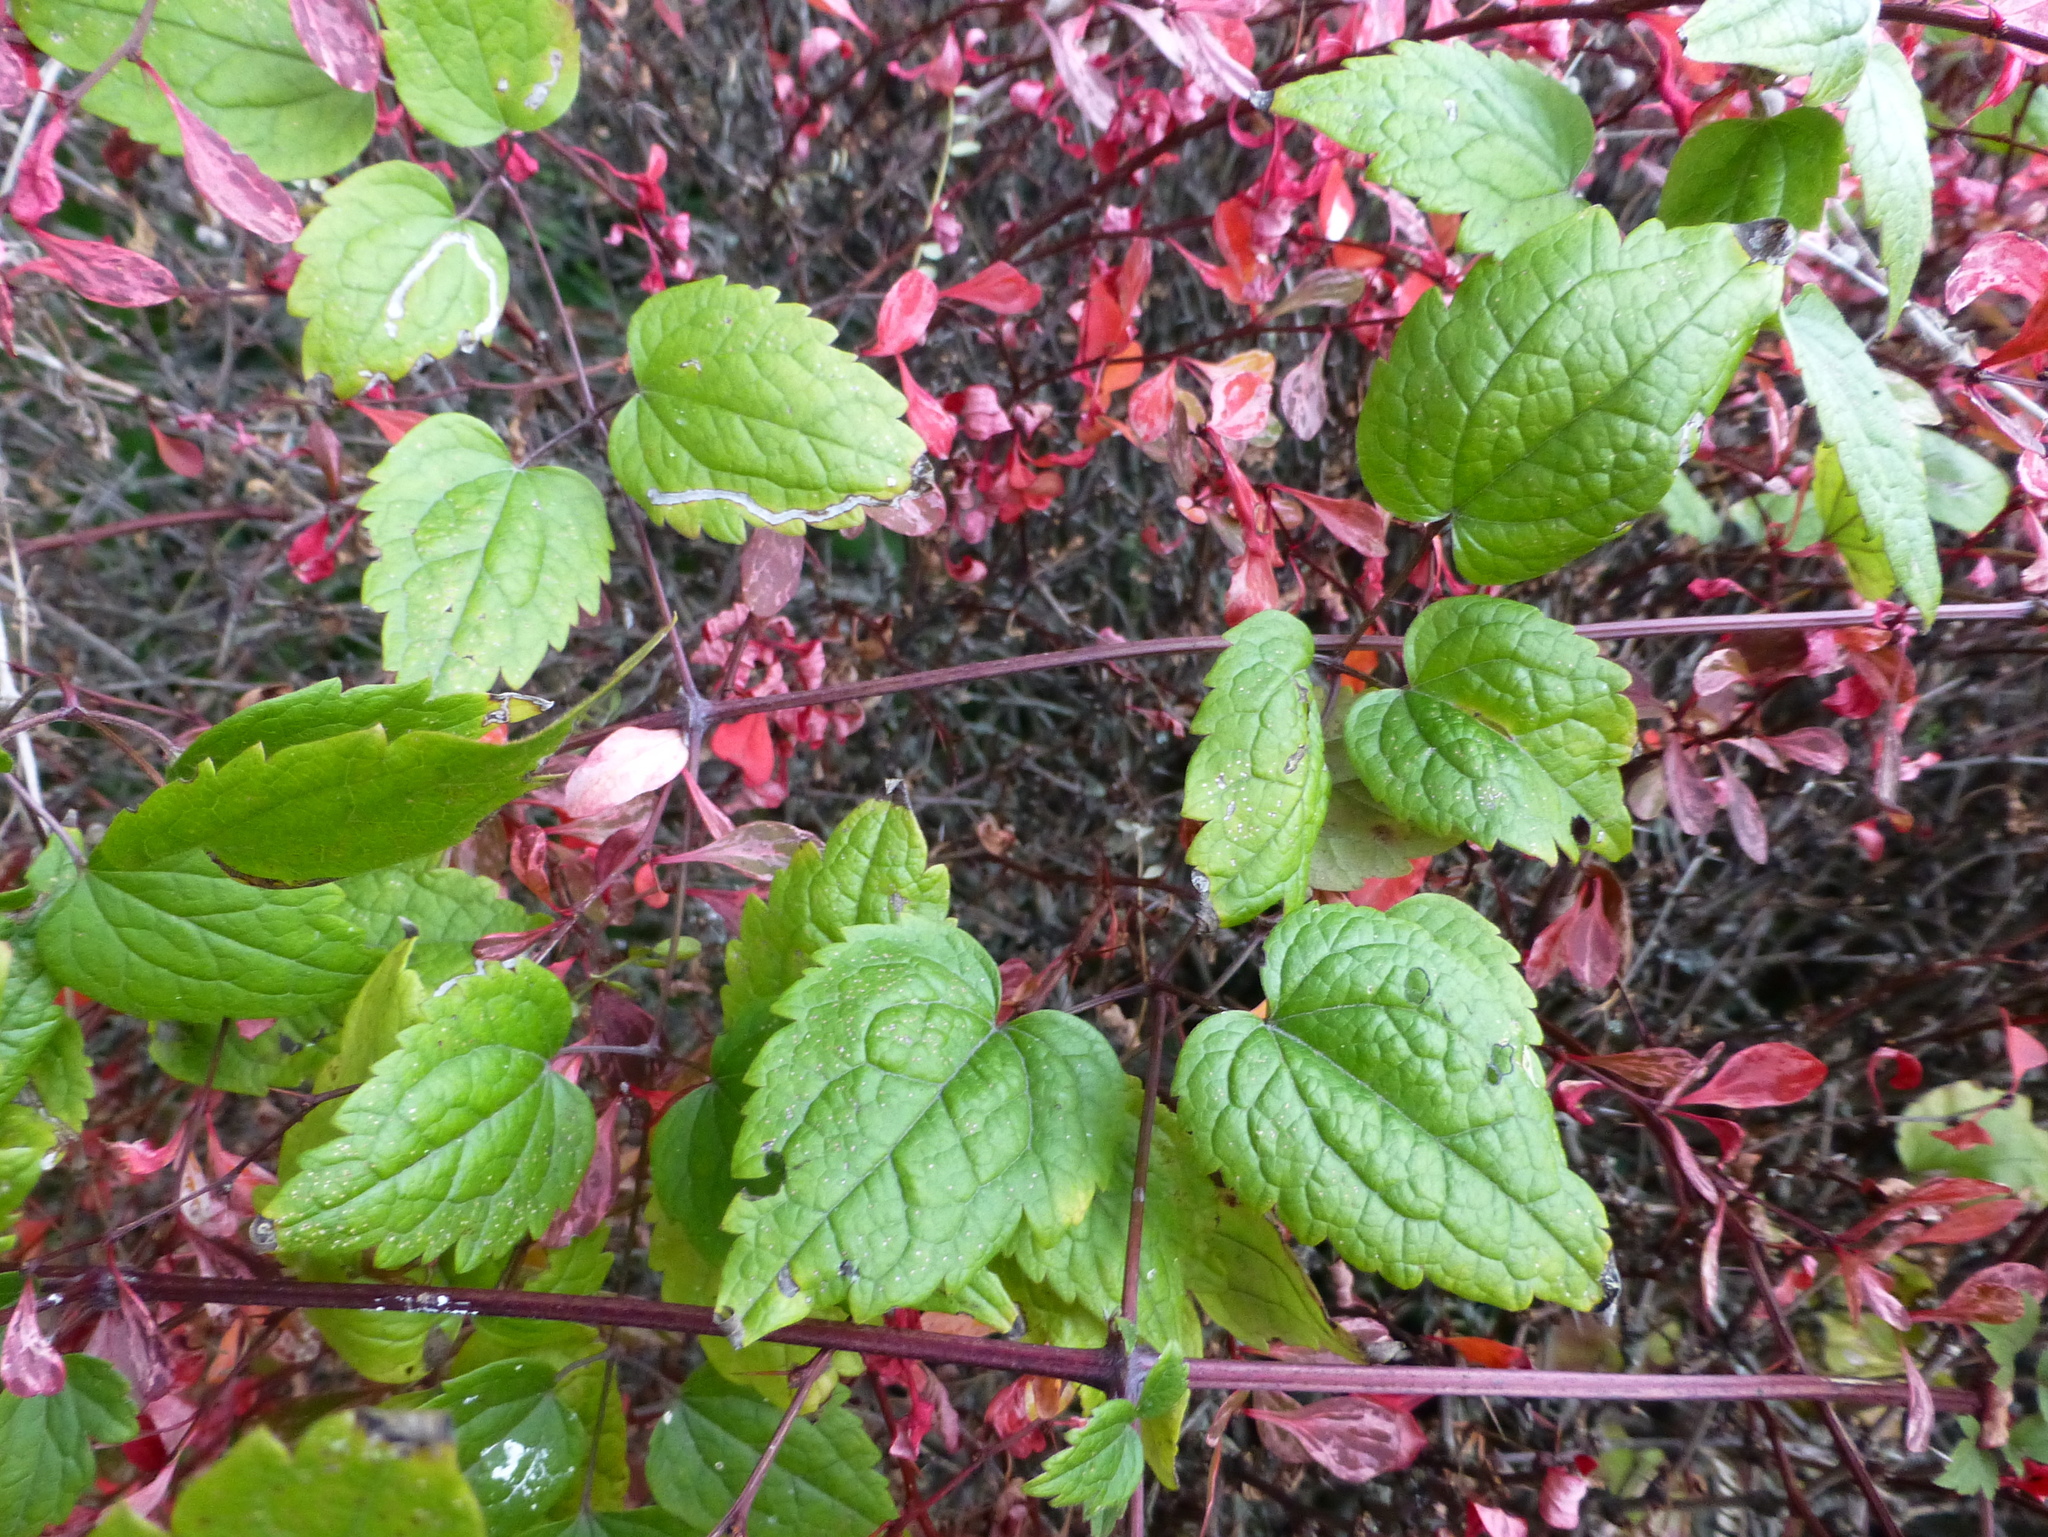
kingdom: Plantae
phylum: Tracheophyta
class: Magnoliopsida
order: Ranunculales
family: Ranunculaceae
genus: Clematis
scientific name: Clematis vitalba
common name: Evergreen clematis
